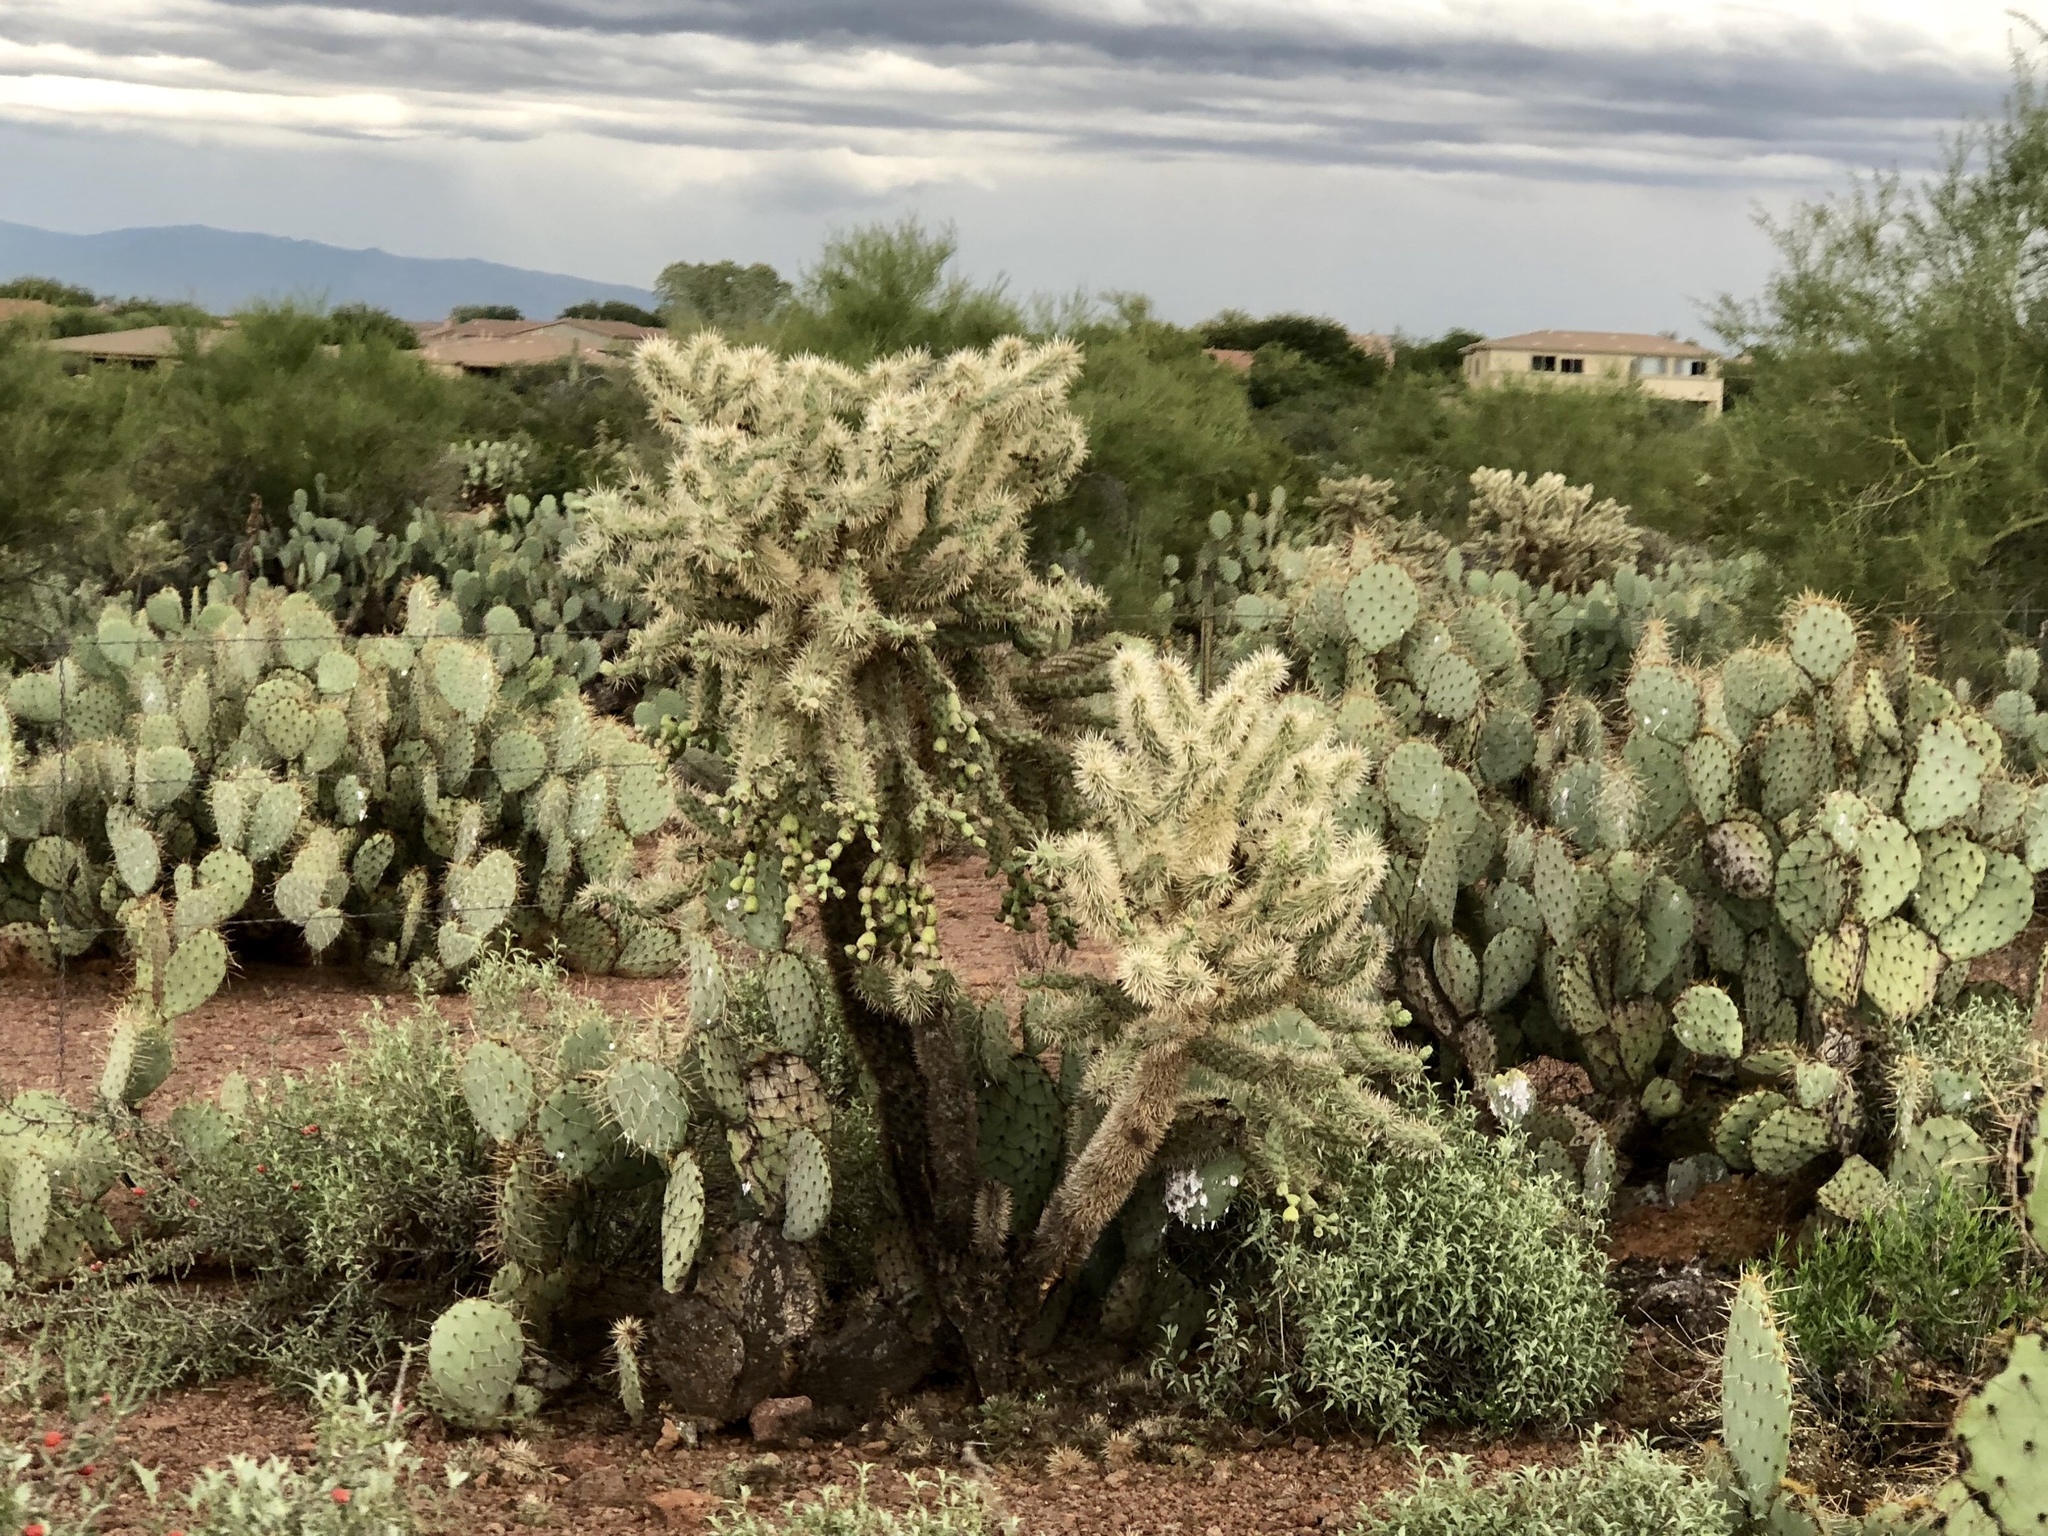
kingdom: Plantae
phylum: Tracheophyta
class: Magnoliopsida
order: Caryophyllales
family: Cactaceae
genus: Cylindropuntia
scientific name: Cylindropuntia fulgida
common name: Jumping cholla
